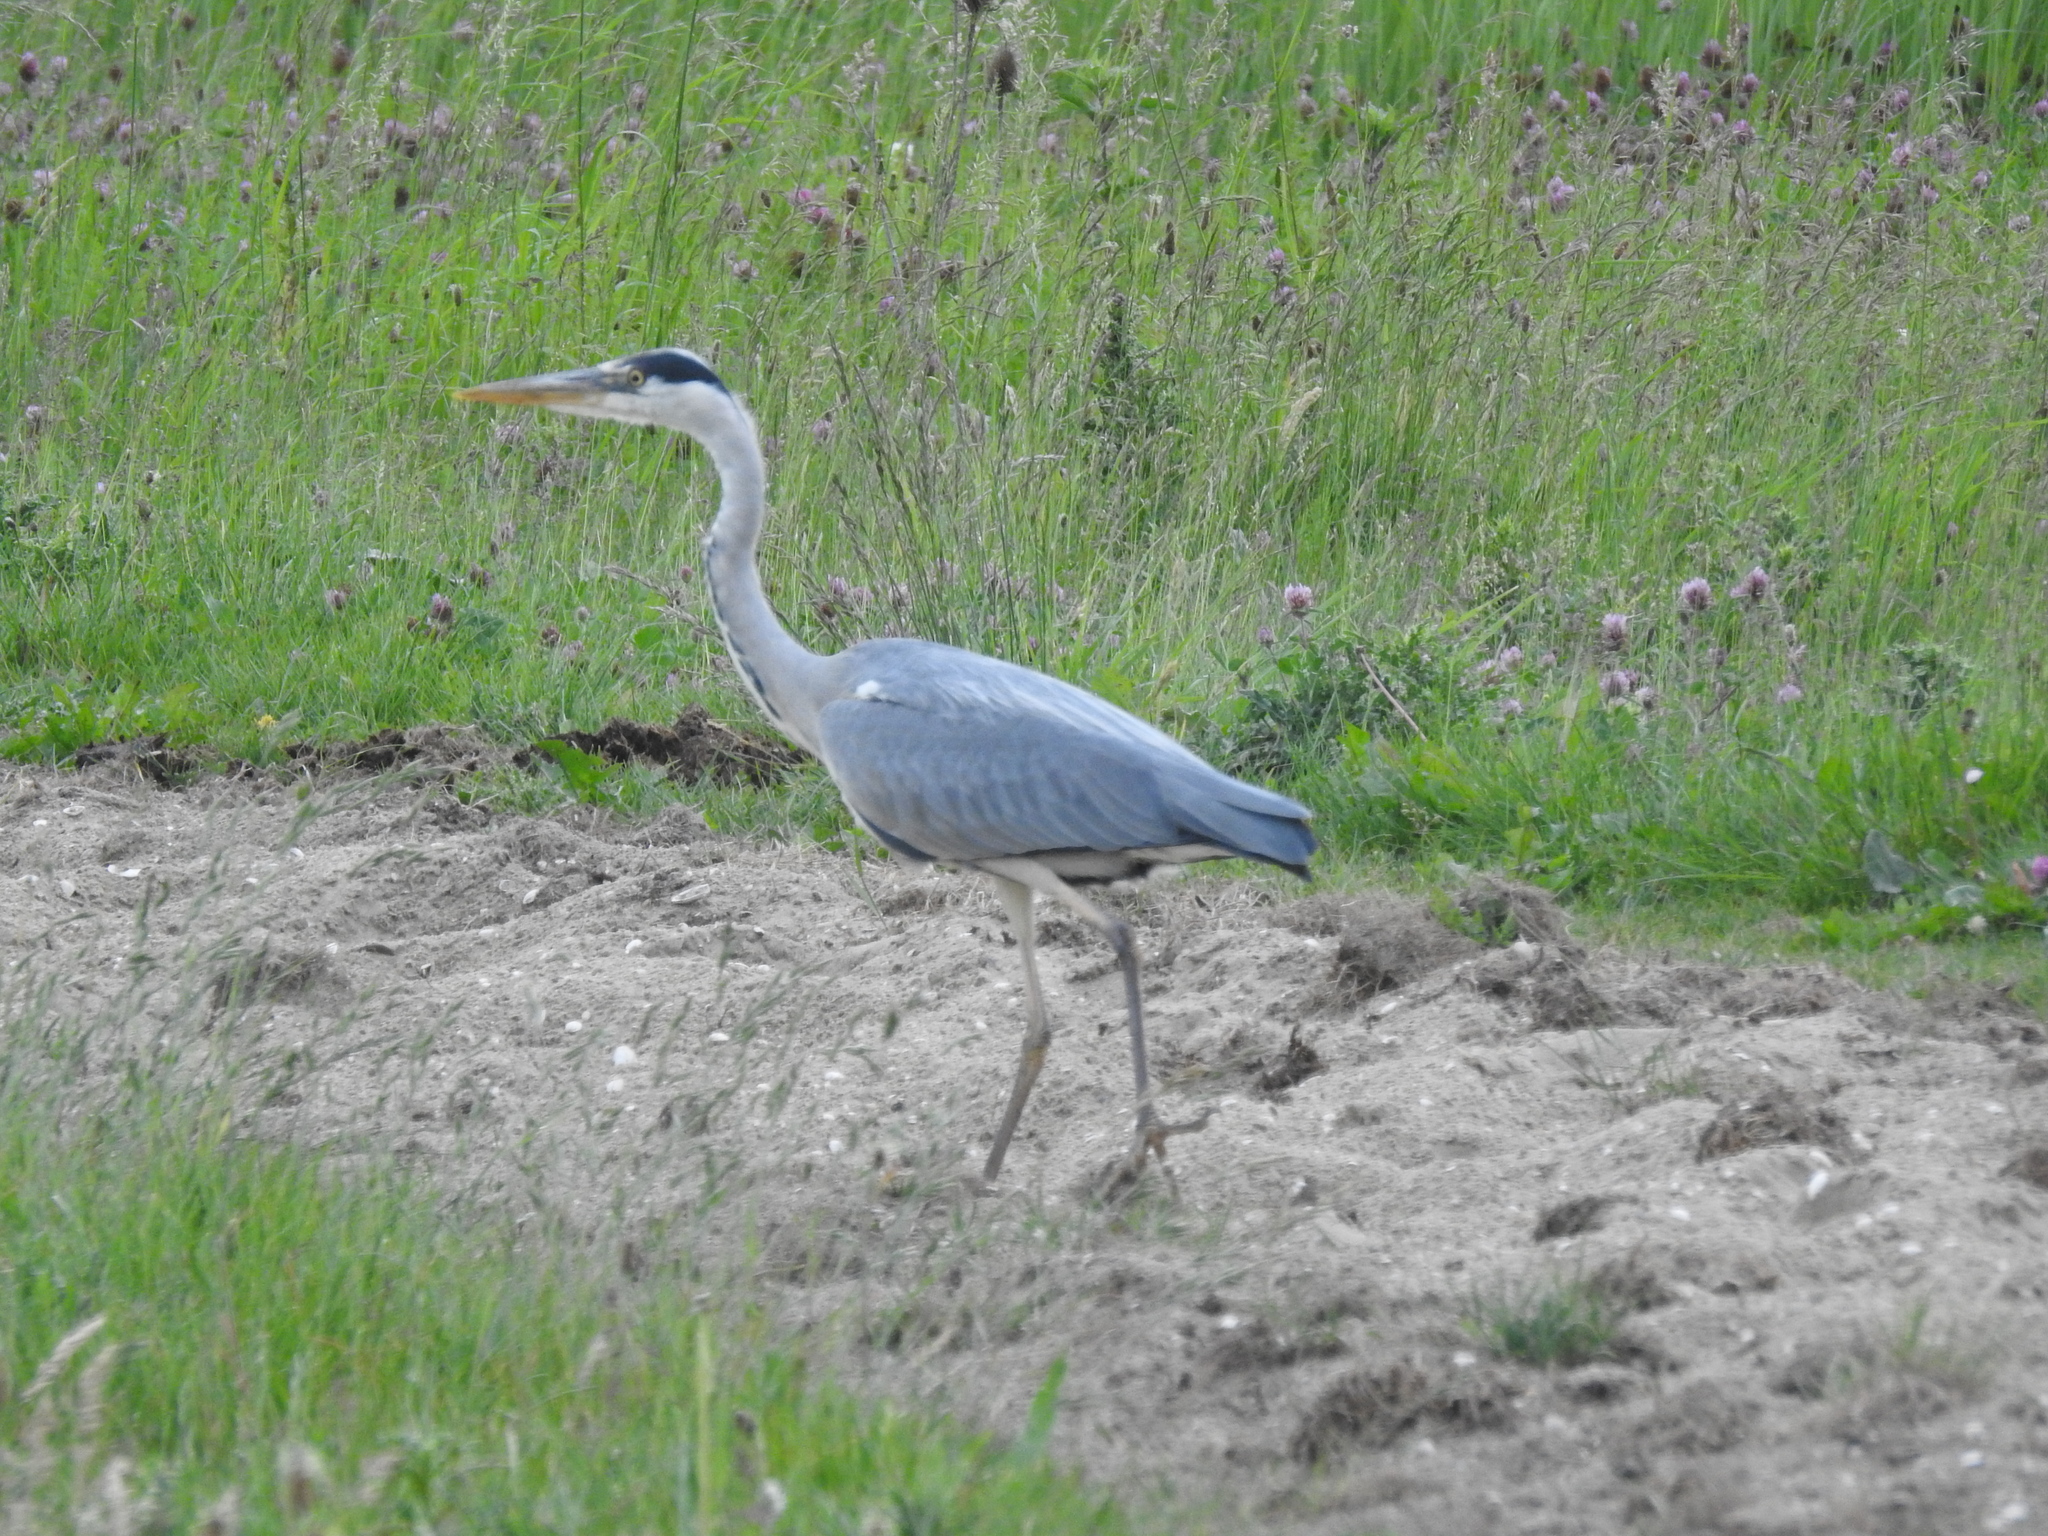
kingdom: Animalia
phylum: Chordata
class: Aves
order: Pelecaniformes
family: Ardeidae
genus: Ardea
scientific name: Ardea cinerea
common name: Grey heron
